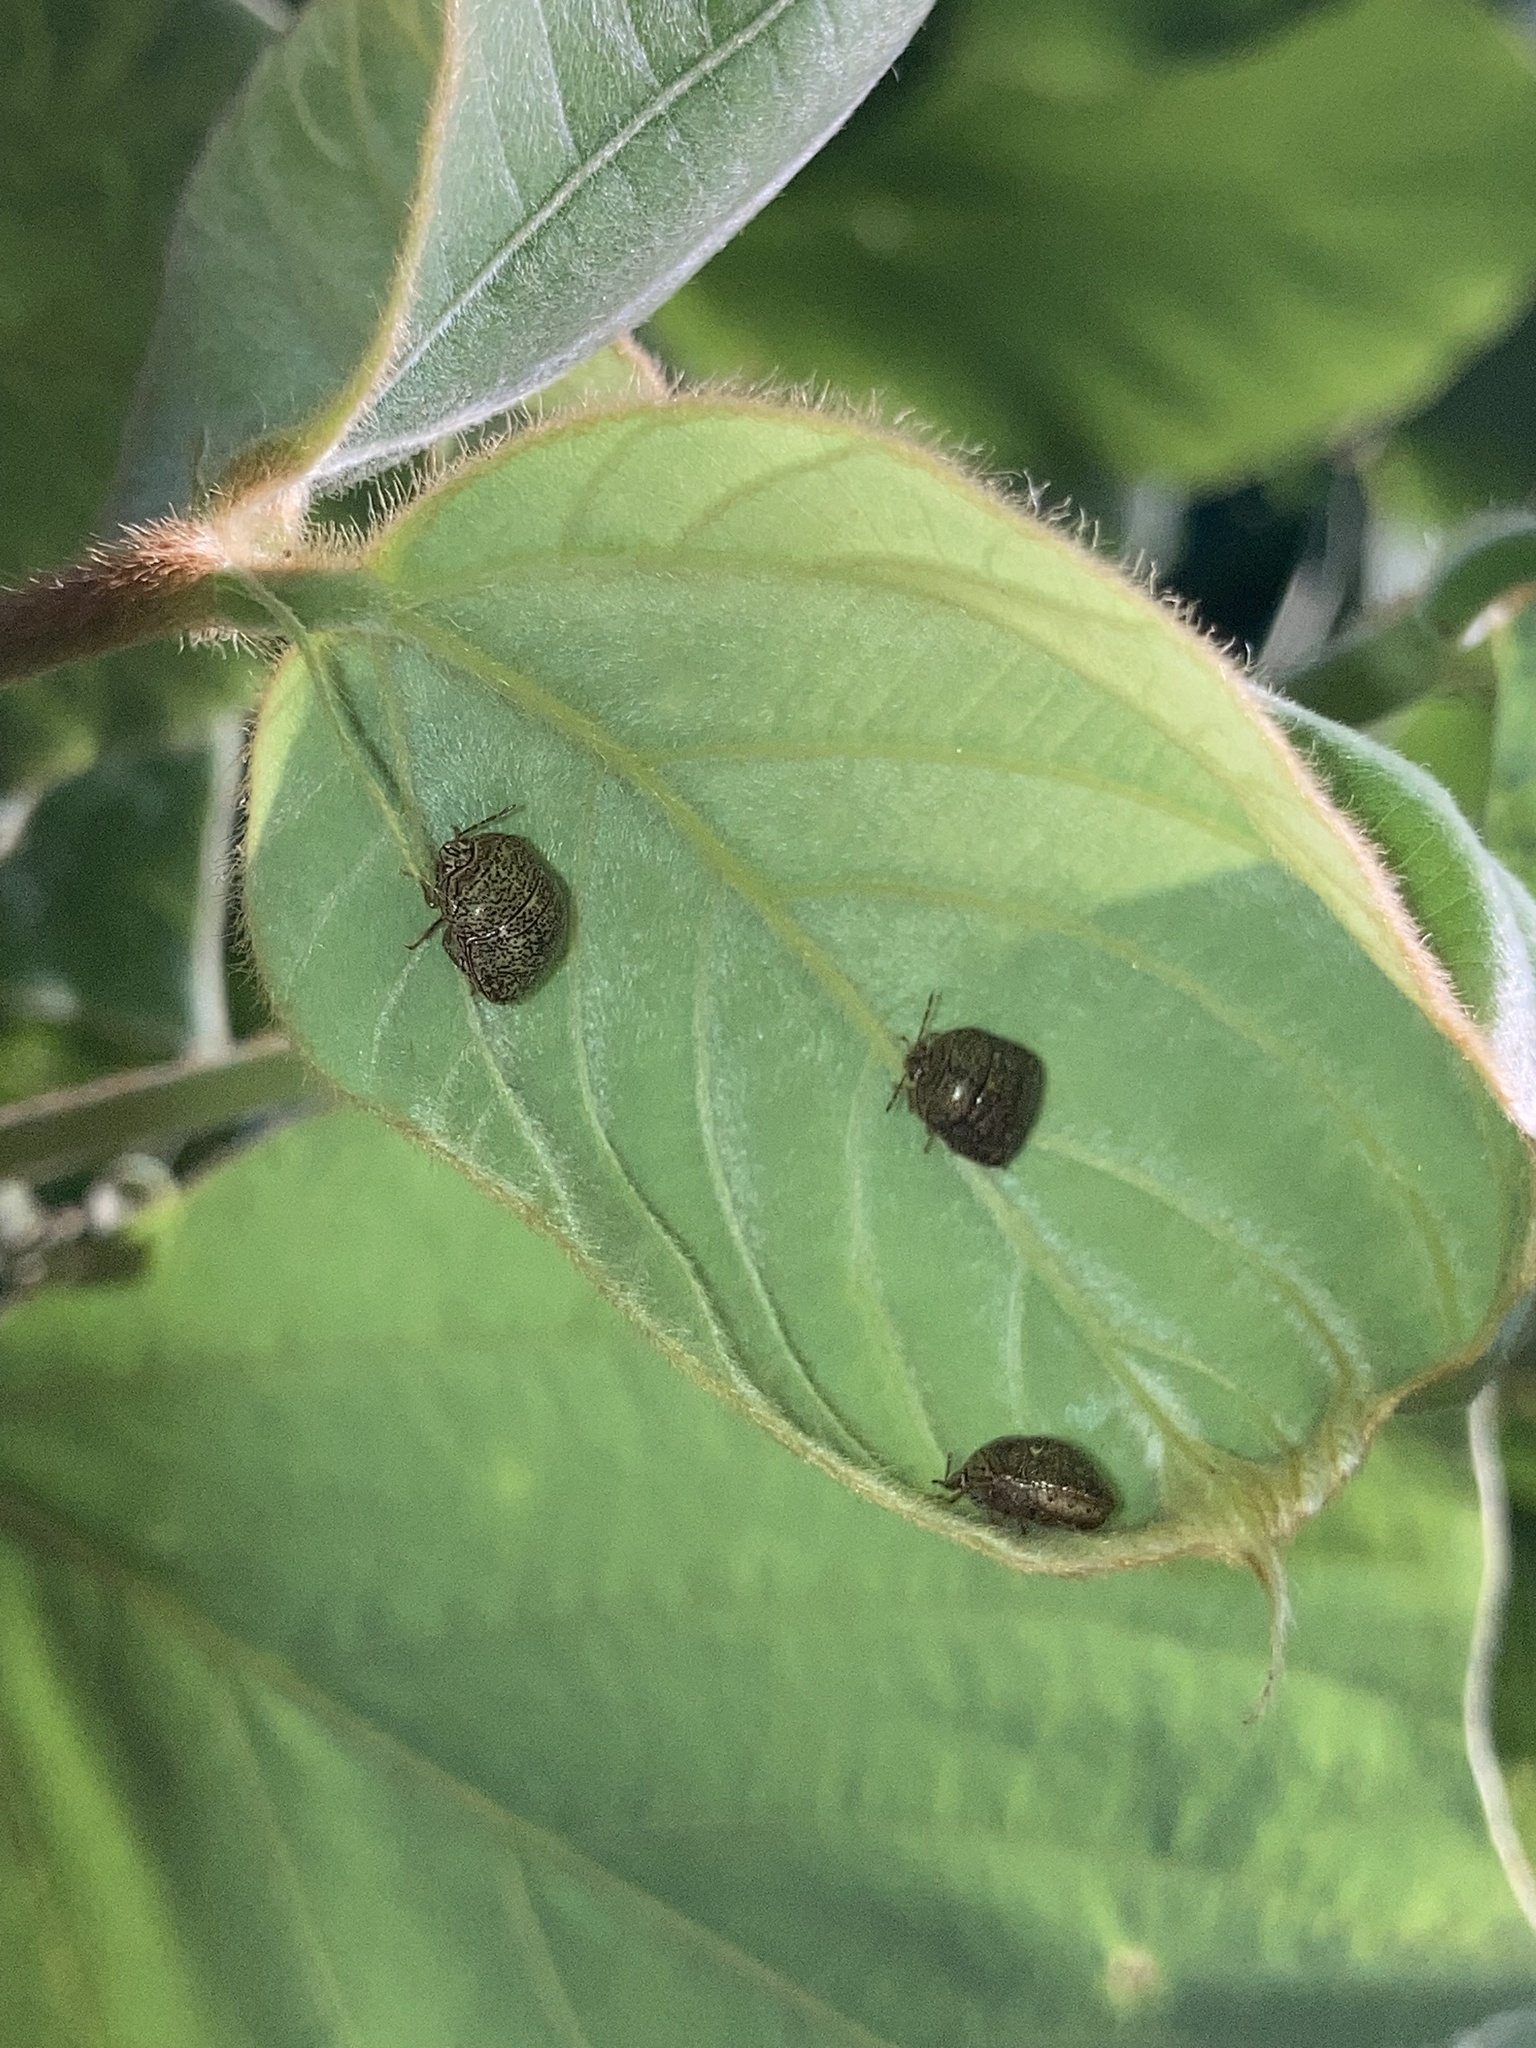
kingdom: Animalia
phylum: Arthropoda
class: Insecta
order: Hemiptera
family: Plataspidae
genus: Megacopta
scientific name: Megacopta cribraria
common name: Bean plataspid
